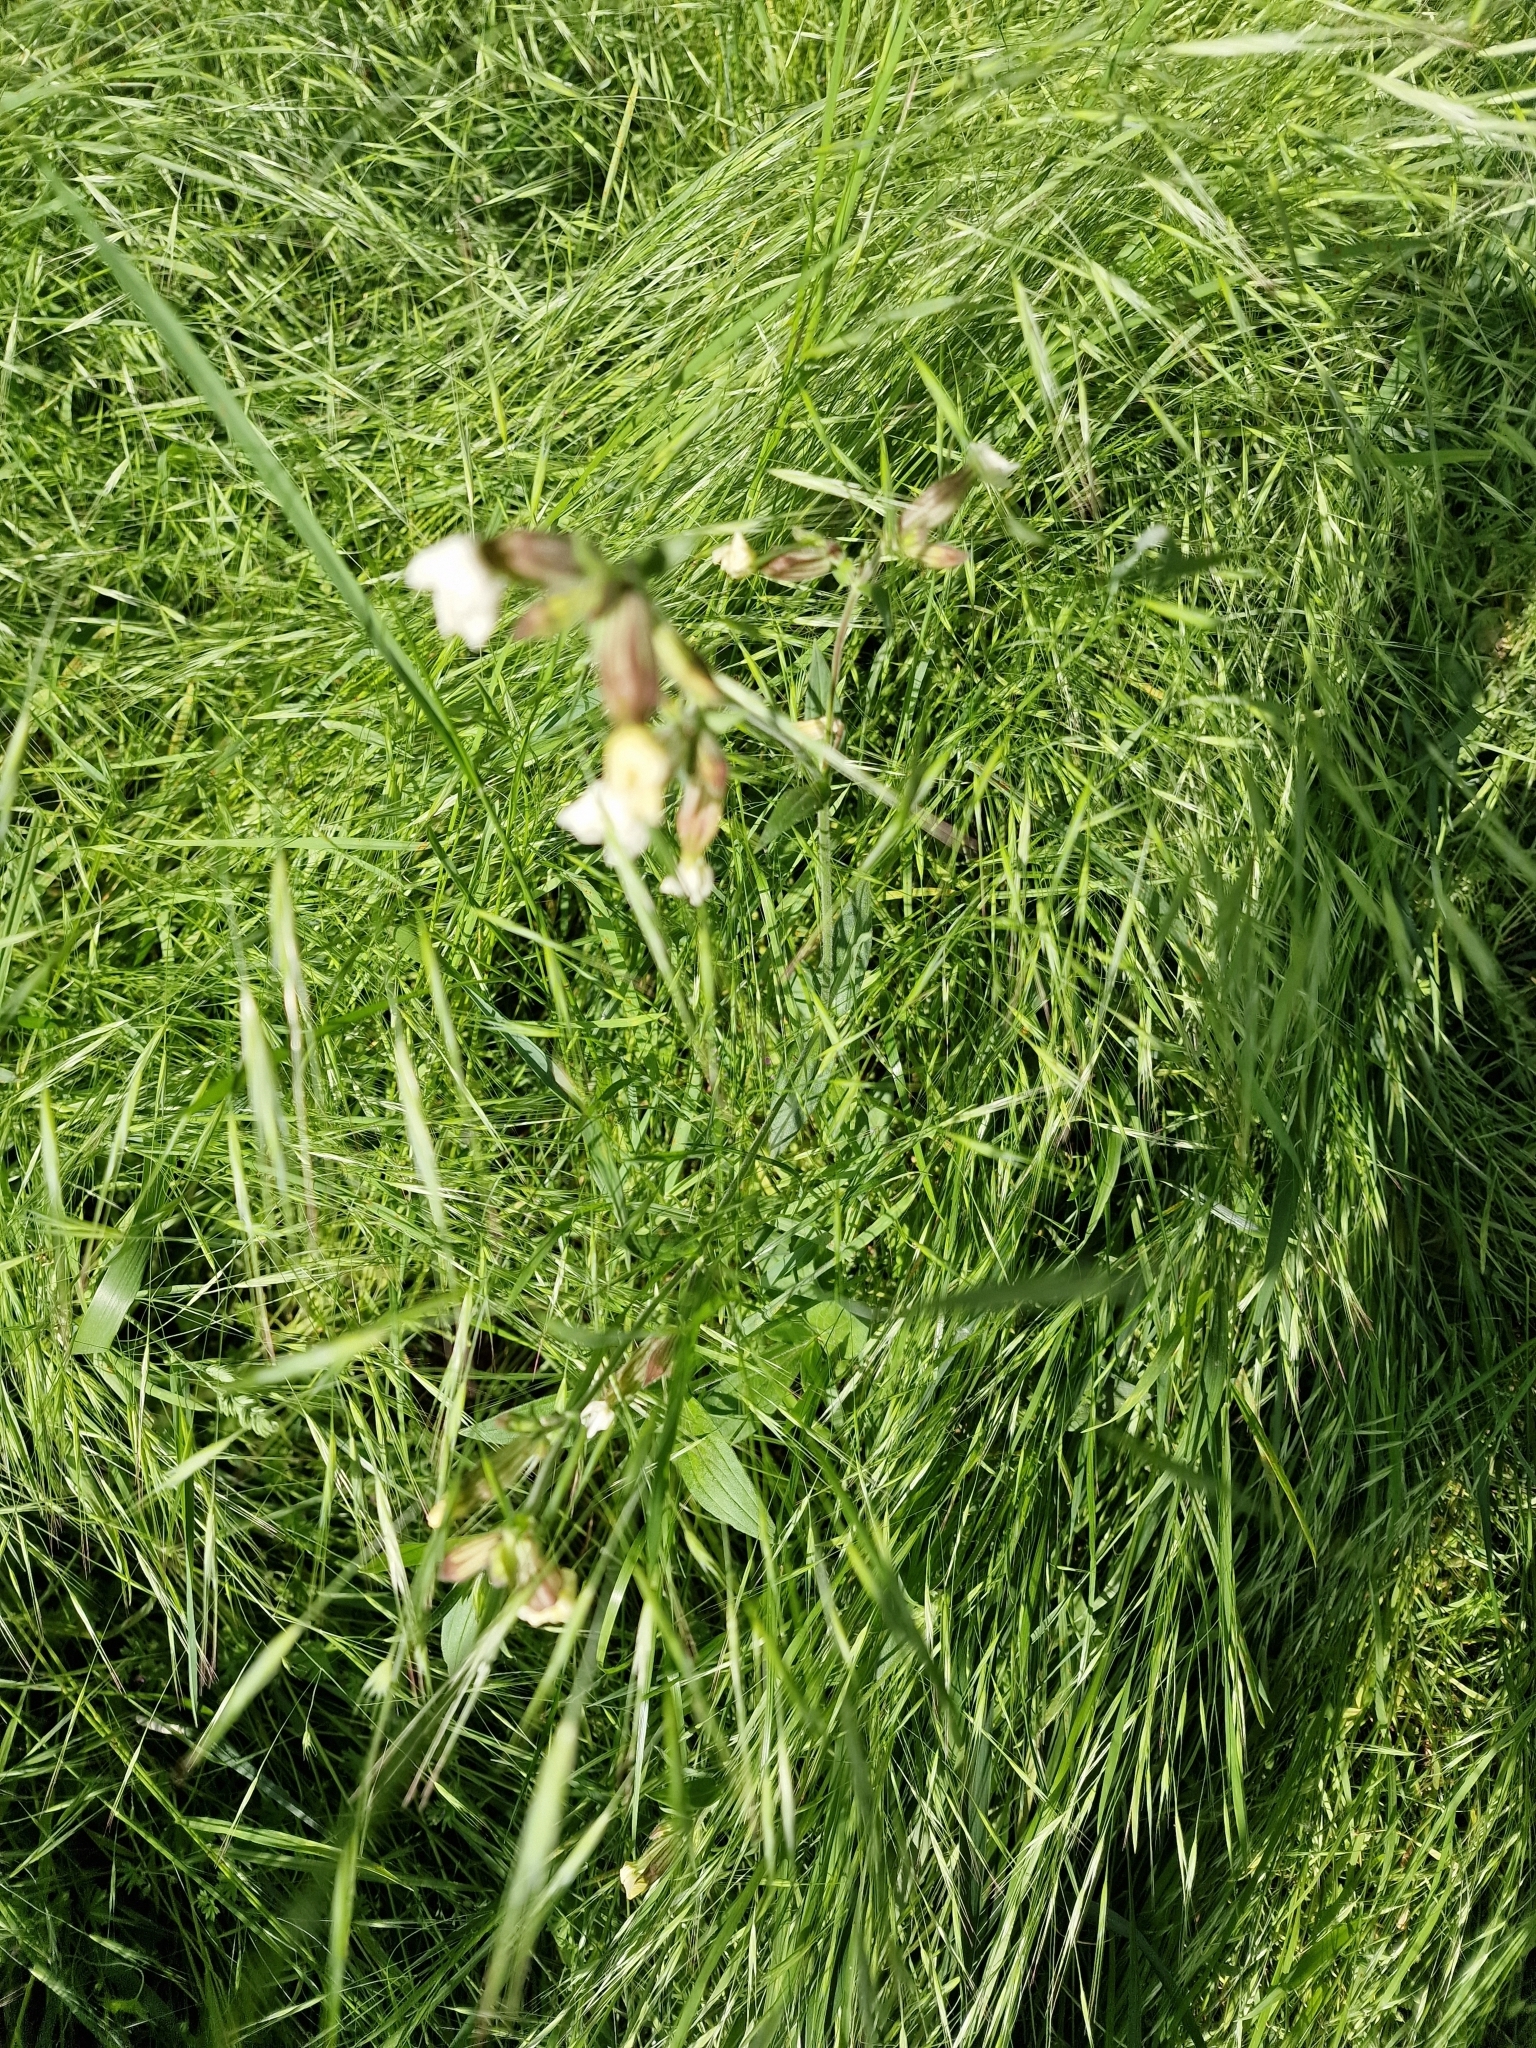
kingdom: Plantae
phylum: Tracheophyta
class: Magnoliopsida
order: Caryophyllales
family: Caryophyllaceae
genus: Silene
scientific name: Silene latifolia
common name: White campion
